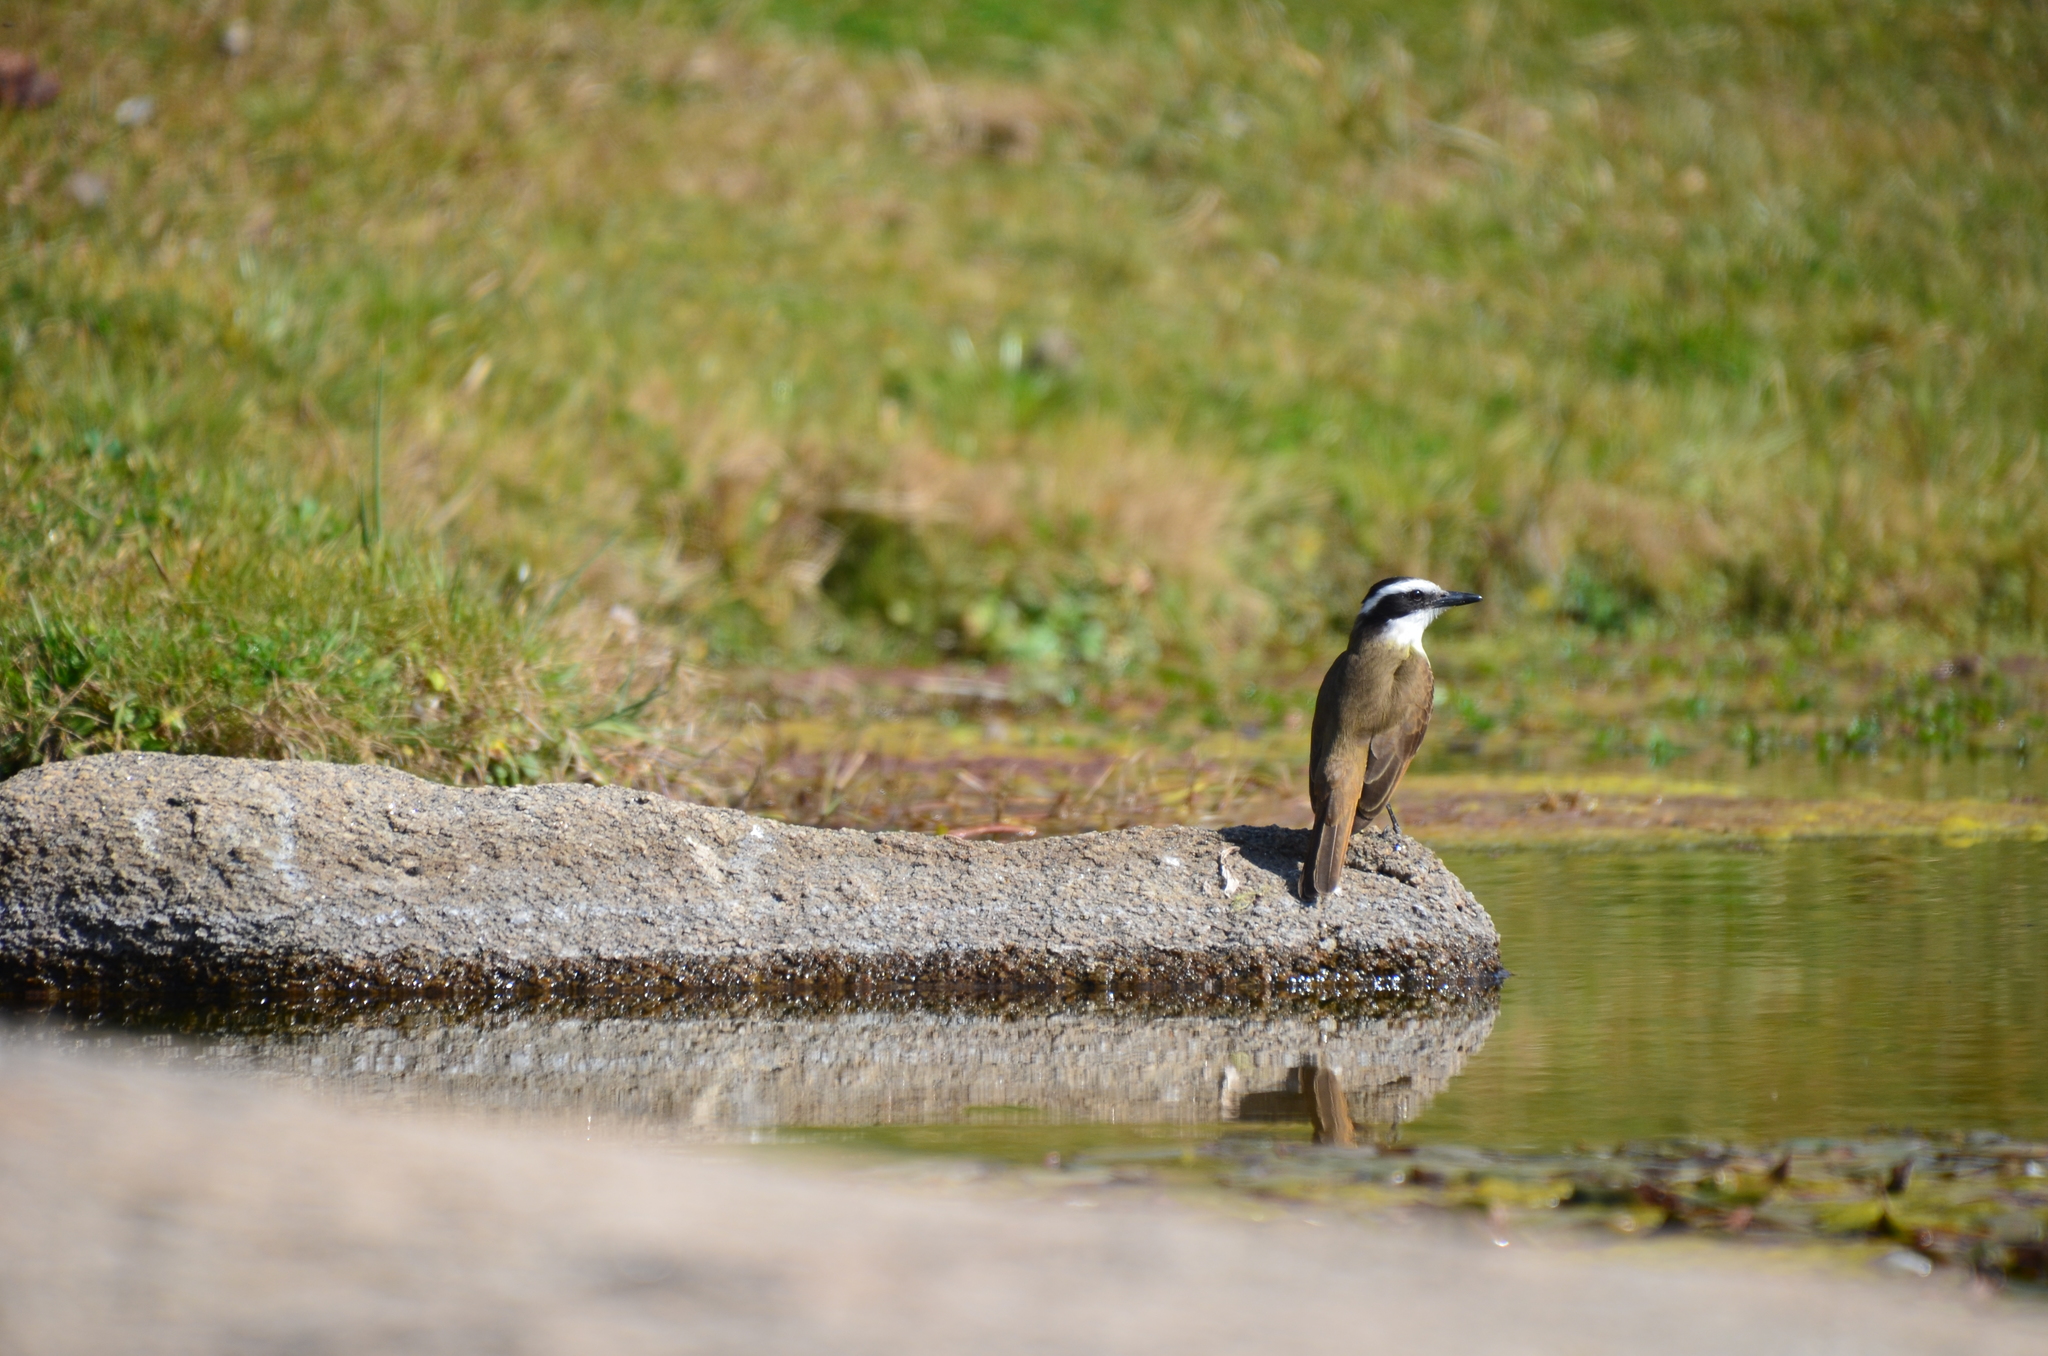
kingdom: Animalia
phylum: Chordata
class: Aves
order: Passeriformes
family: Tyrannidae
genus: Pitangus
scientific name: Pitangus sulphuratus
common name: Great kiskadee
